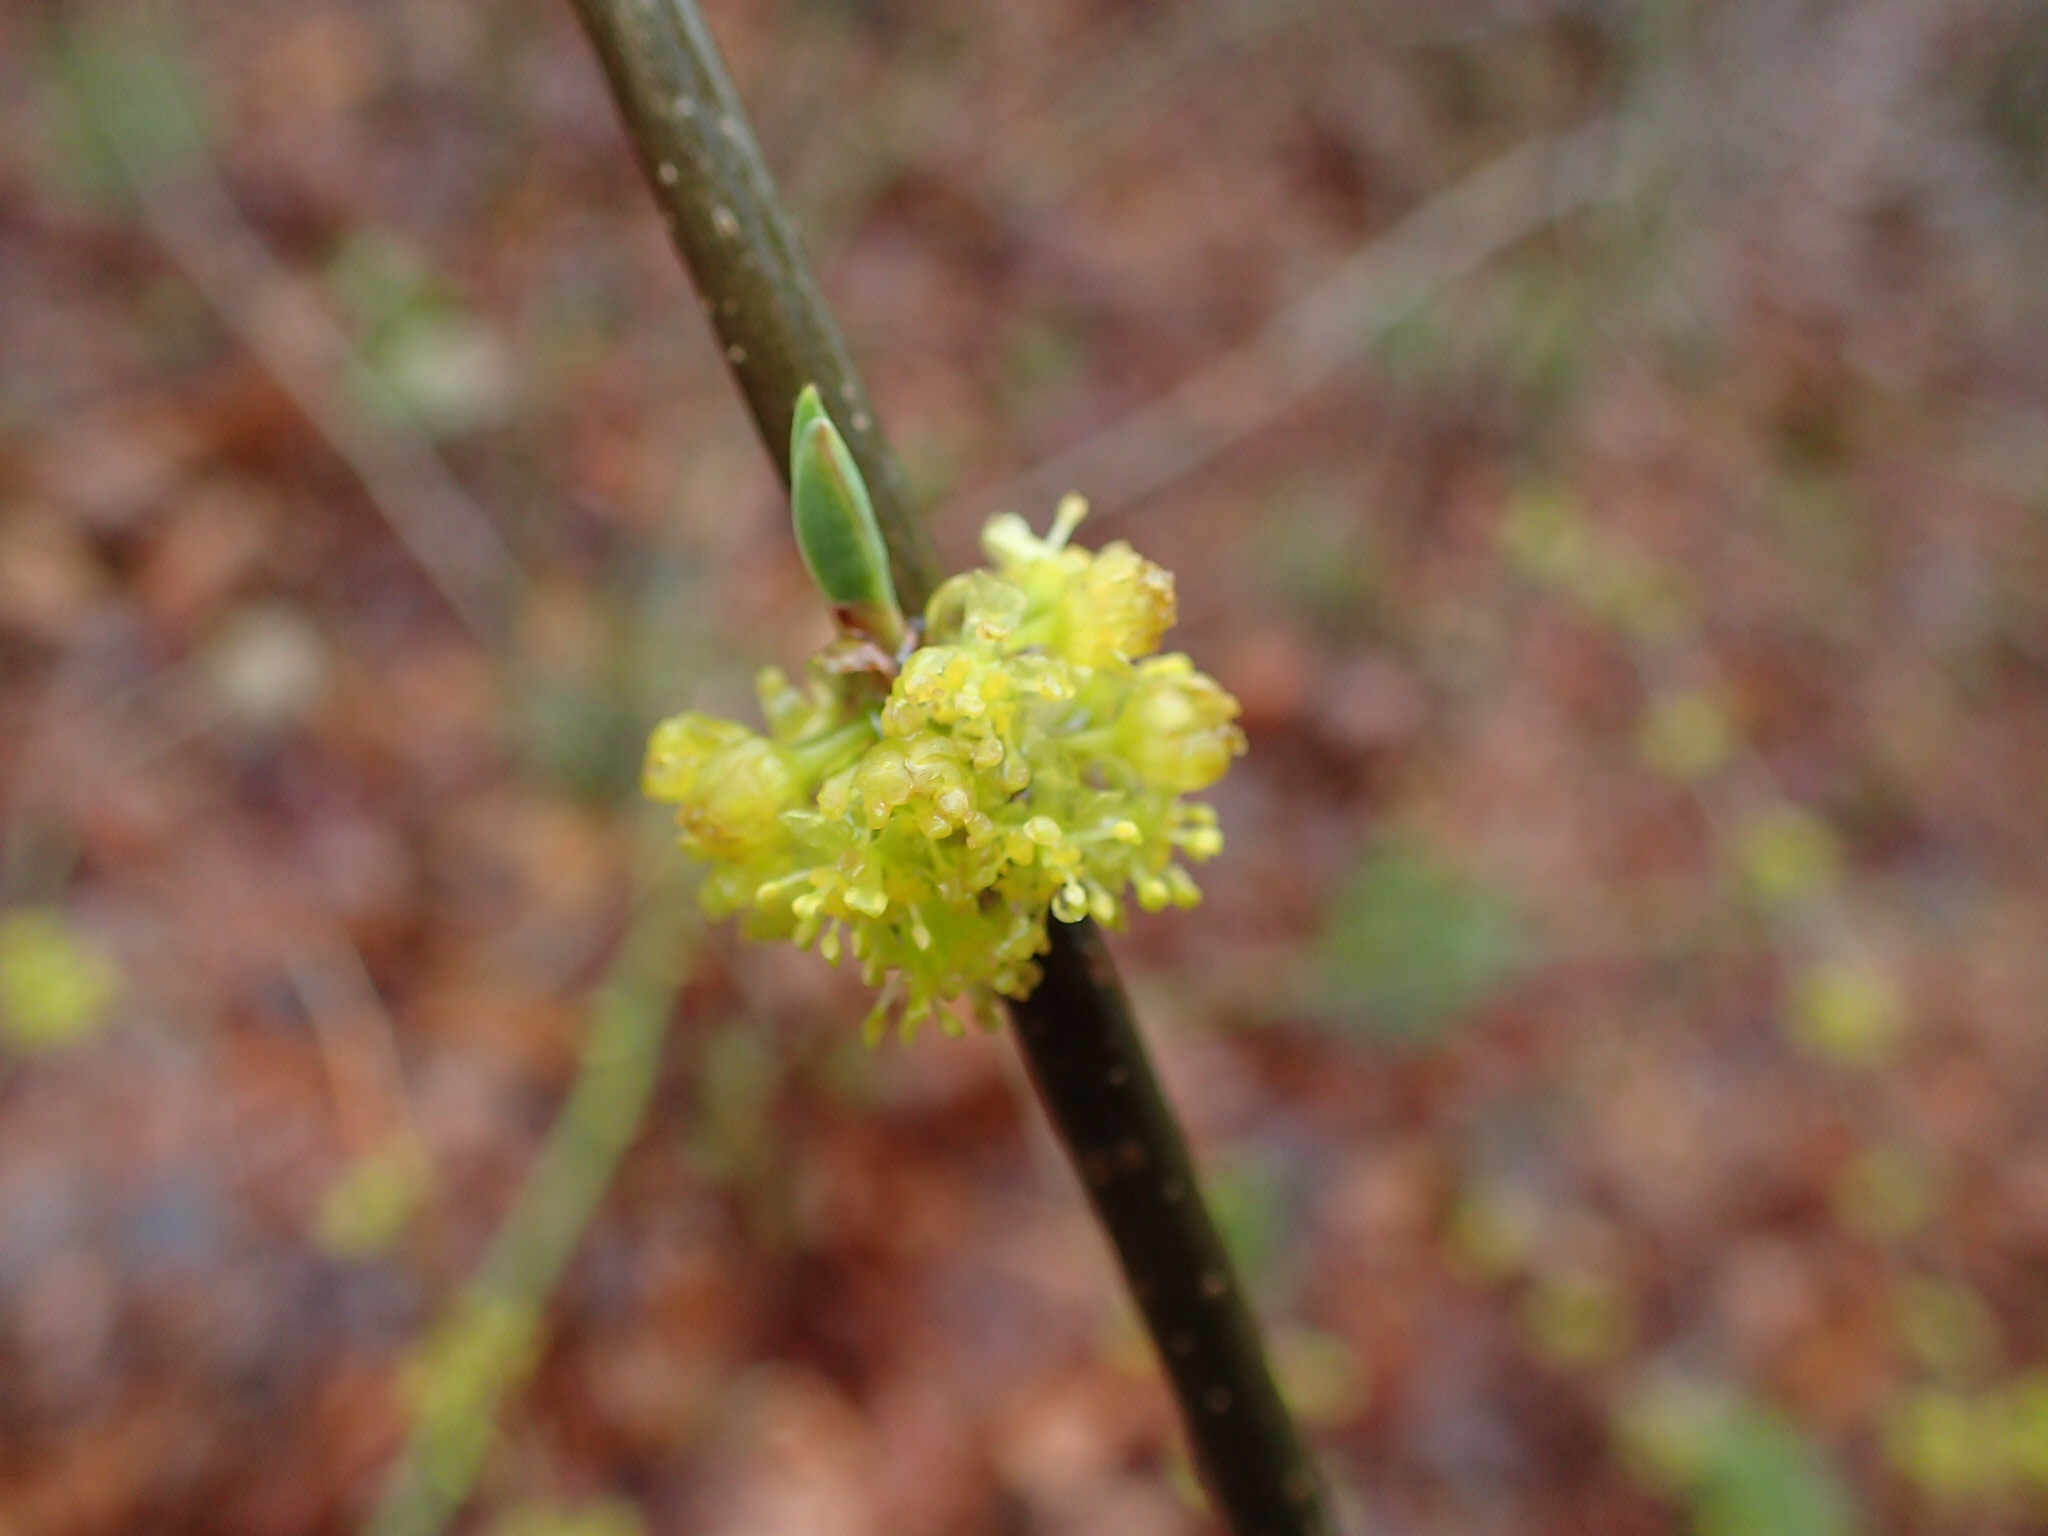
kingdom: Plantae
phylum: Tracheophyta
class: Magnoliopsida
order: Laurales
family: Lauraceae
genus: Lindera
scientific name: Lindera benzoin
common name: Spicebush
